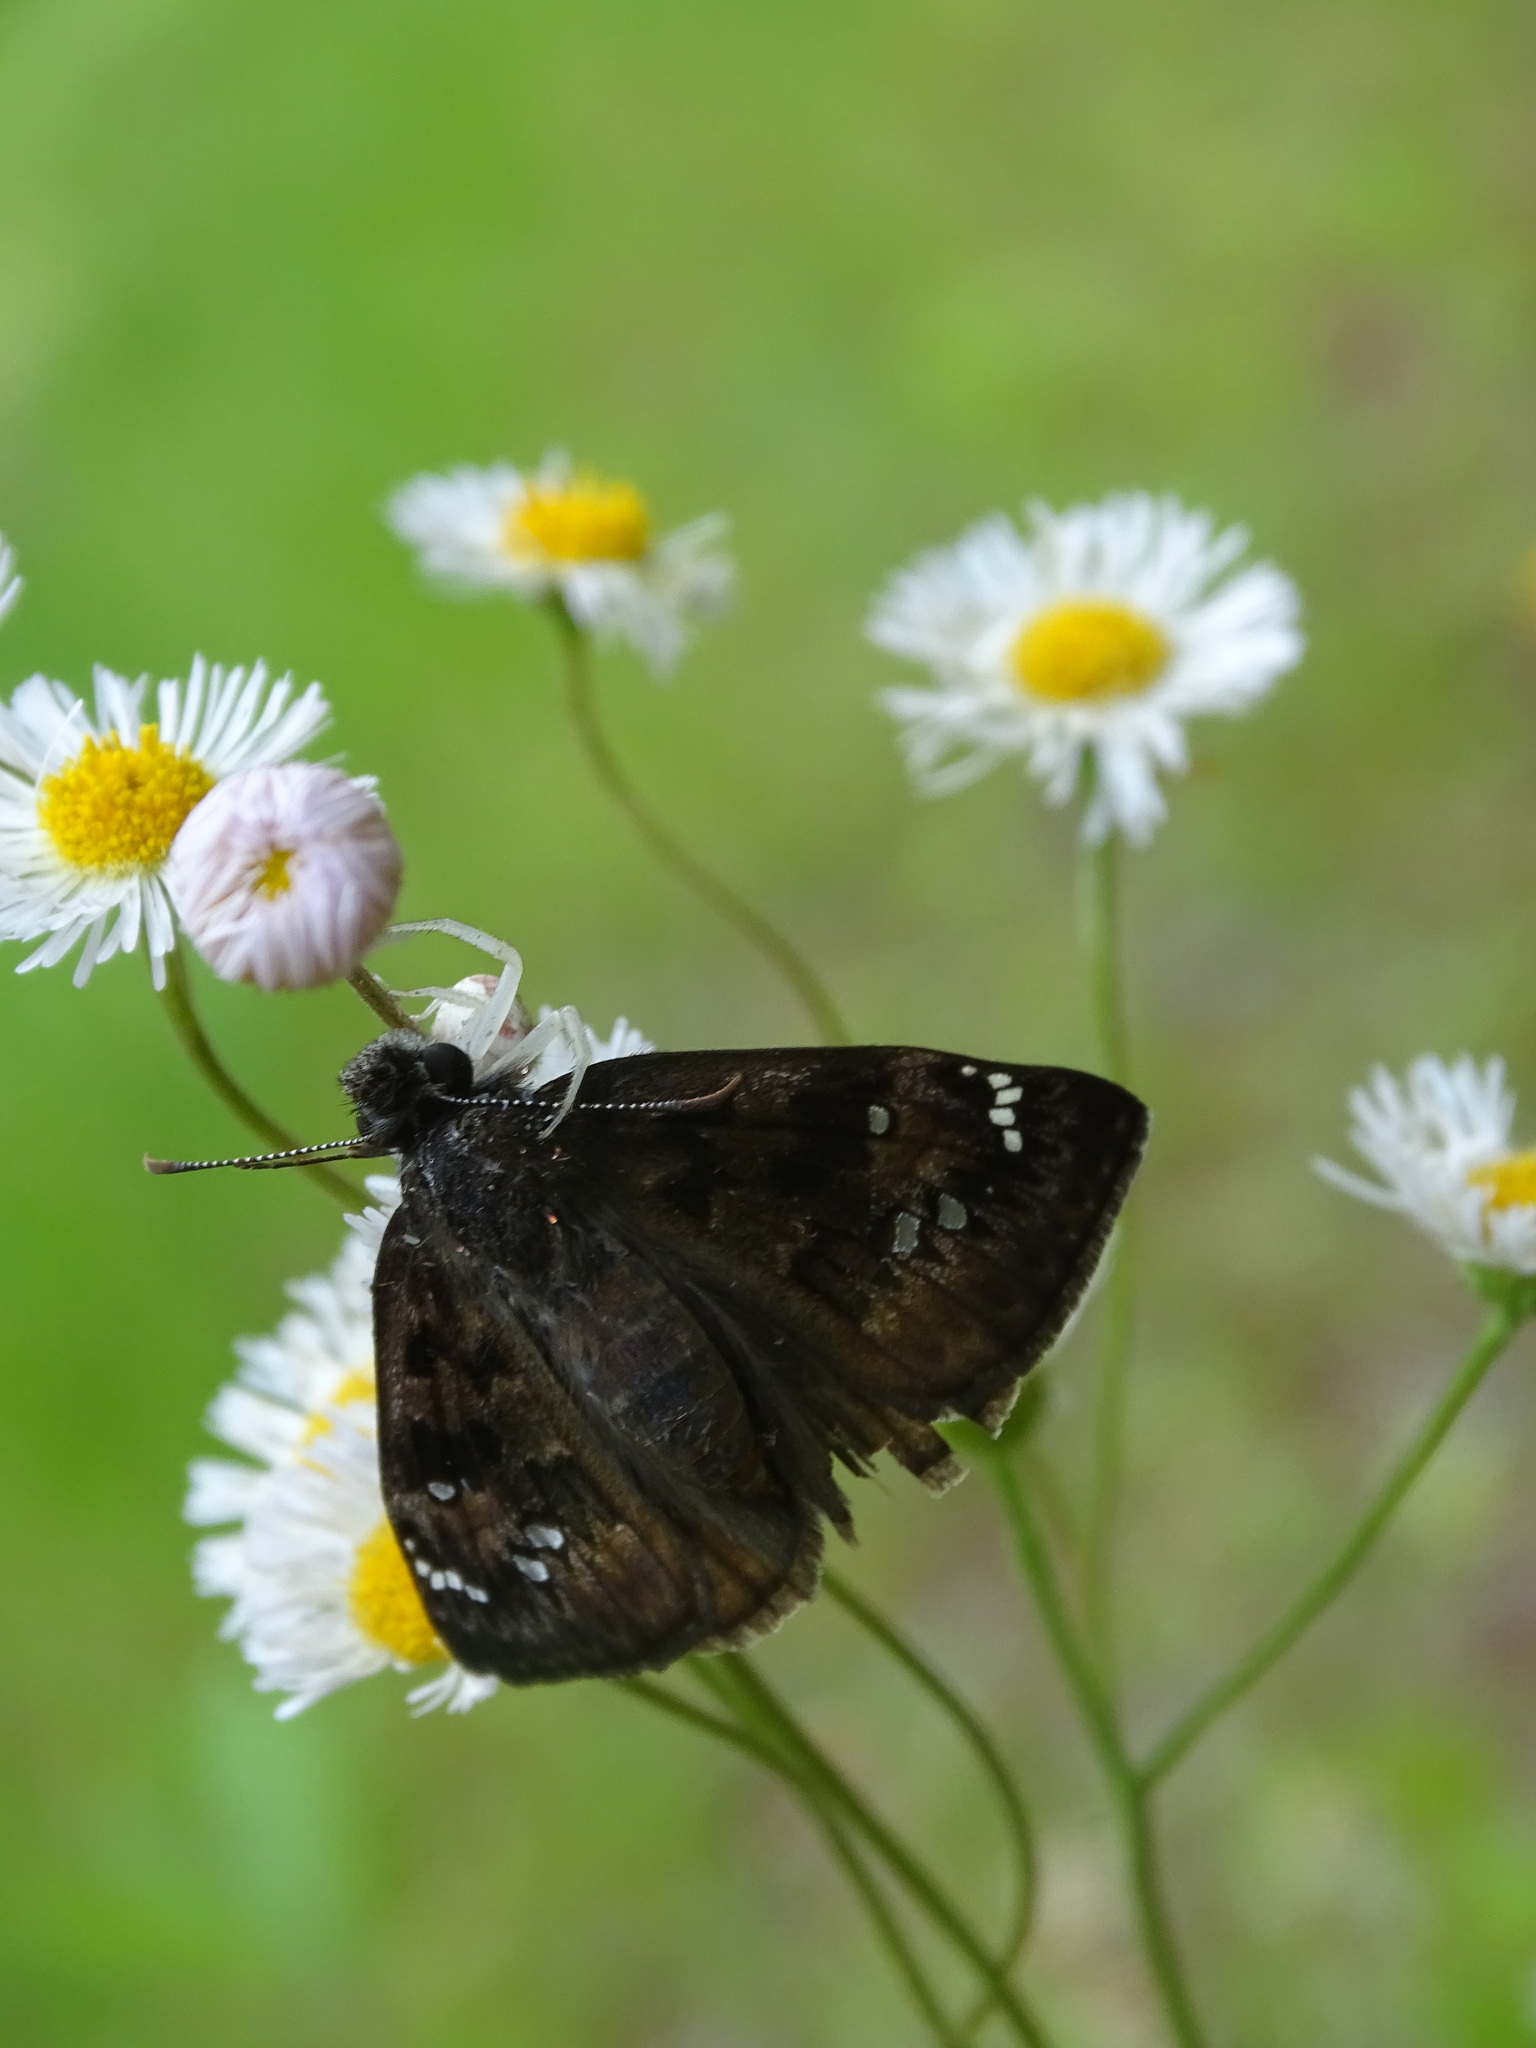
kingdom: Animalia
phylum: Arthropoda
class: Insecta
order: Lepidoptera
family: Hesperiidae
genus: Erynnis
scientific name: Erynnis horatius
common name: Horace's duskywing
